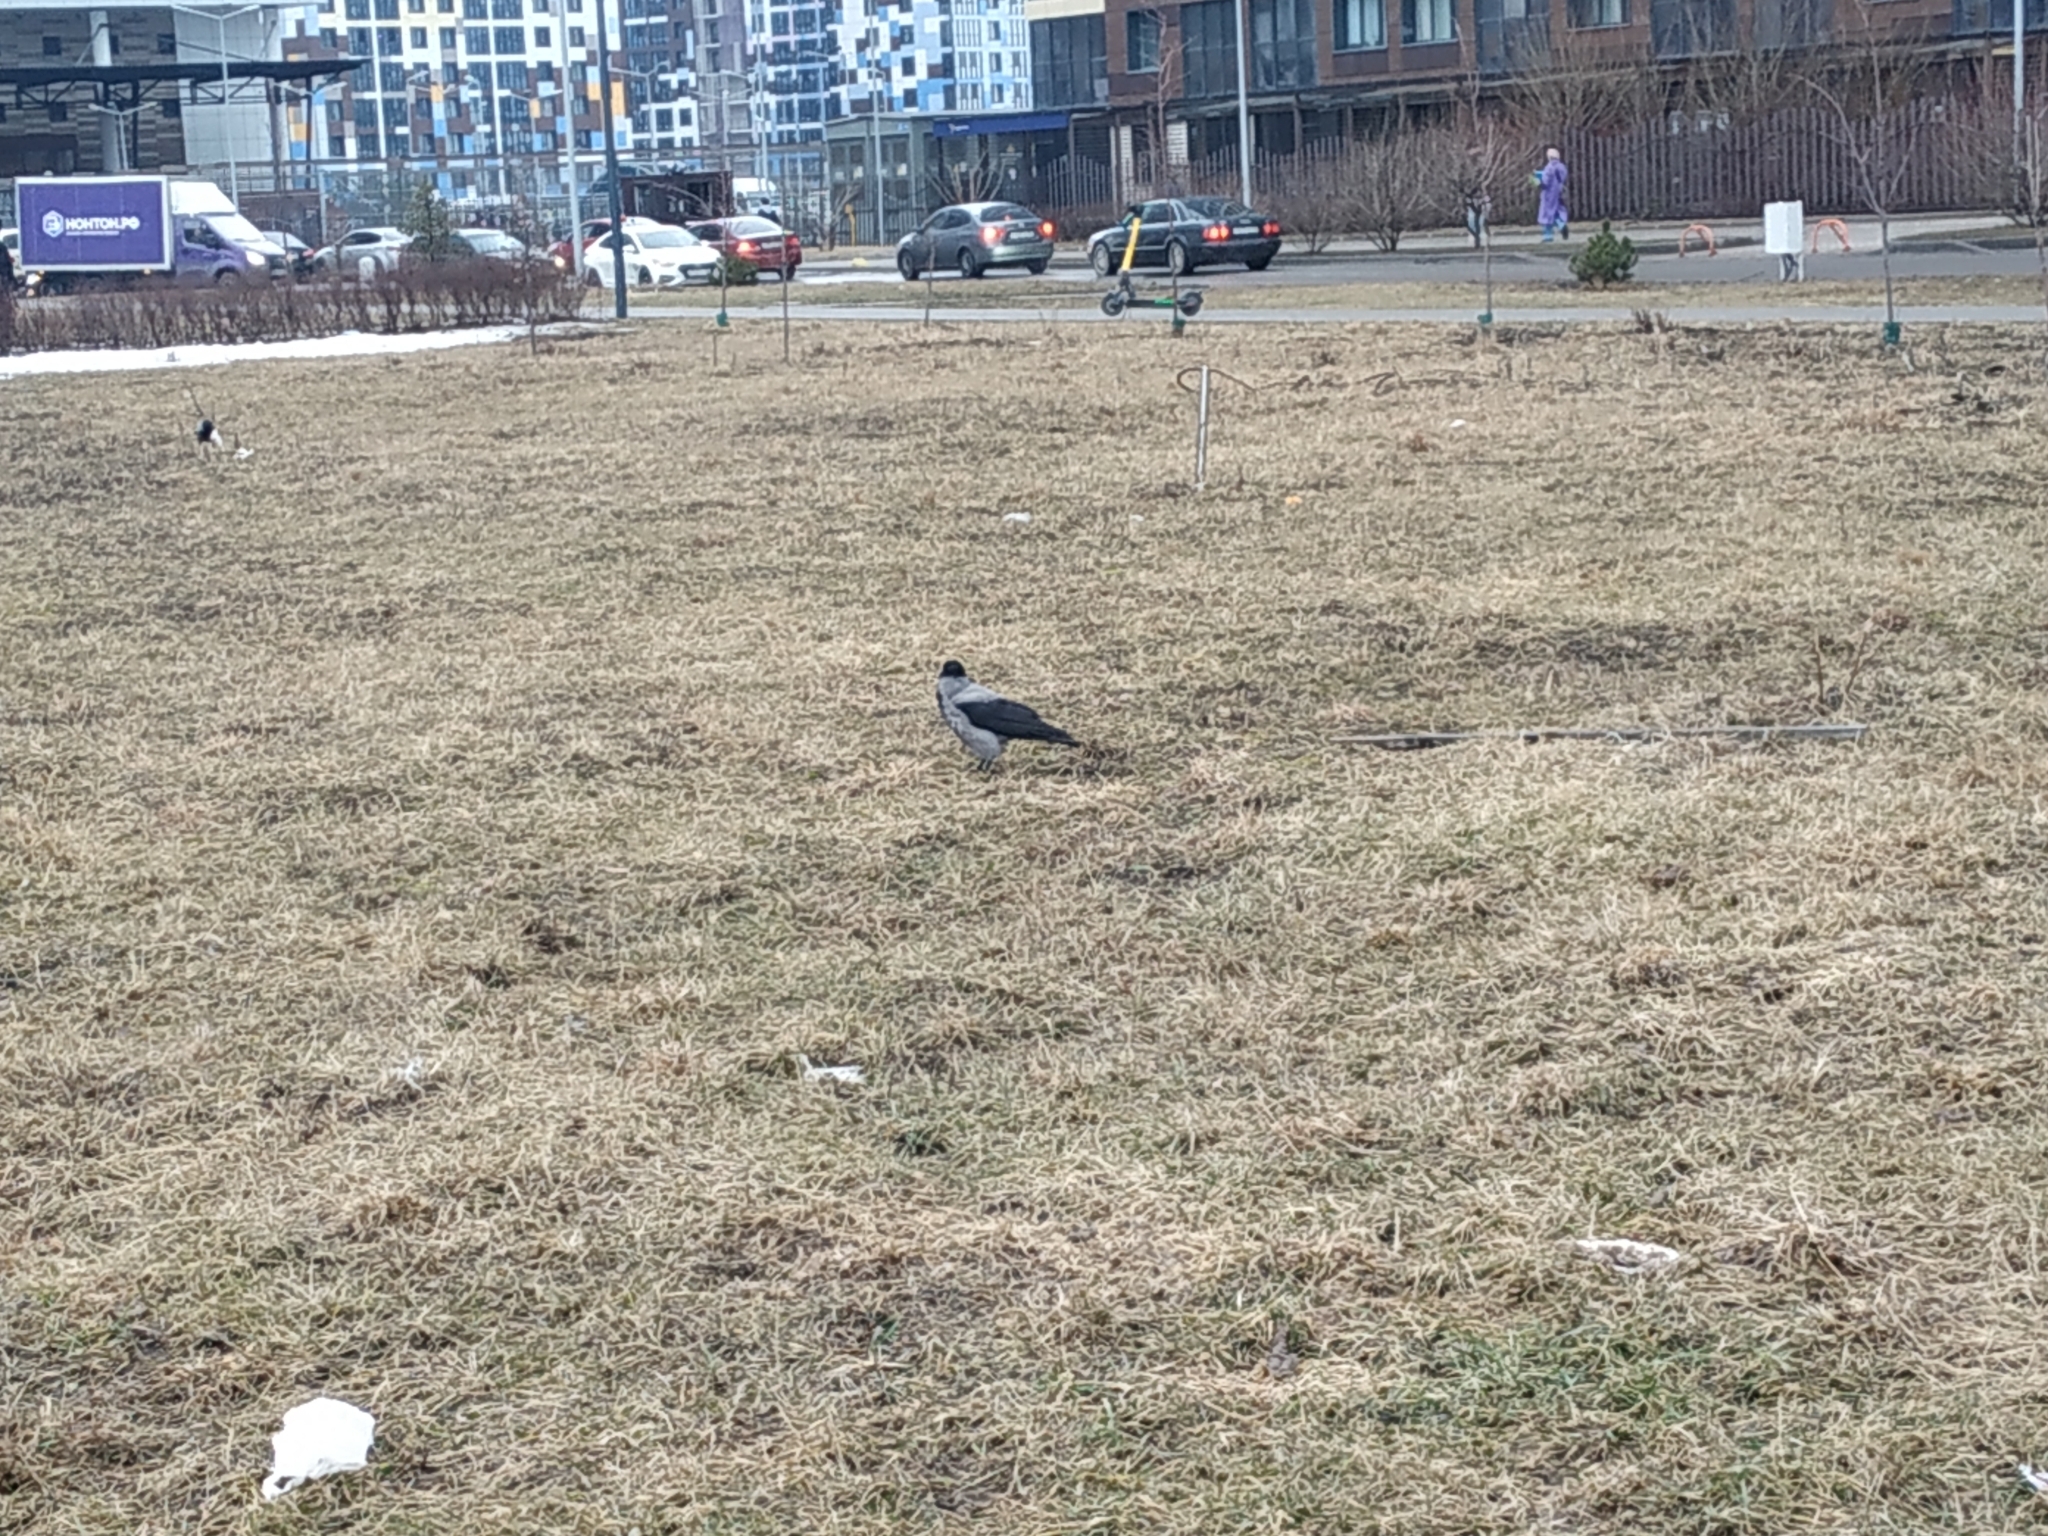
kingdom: Animalia
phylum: Chordata
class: Aves
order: Passeriformes
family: Corvidae
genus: Corvus
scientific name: Corvus cornix
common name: Hooded crow
